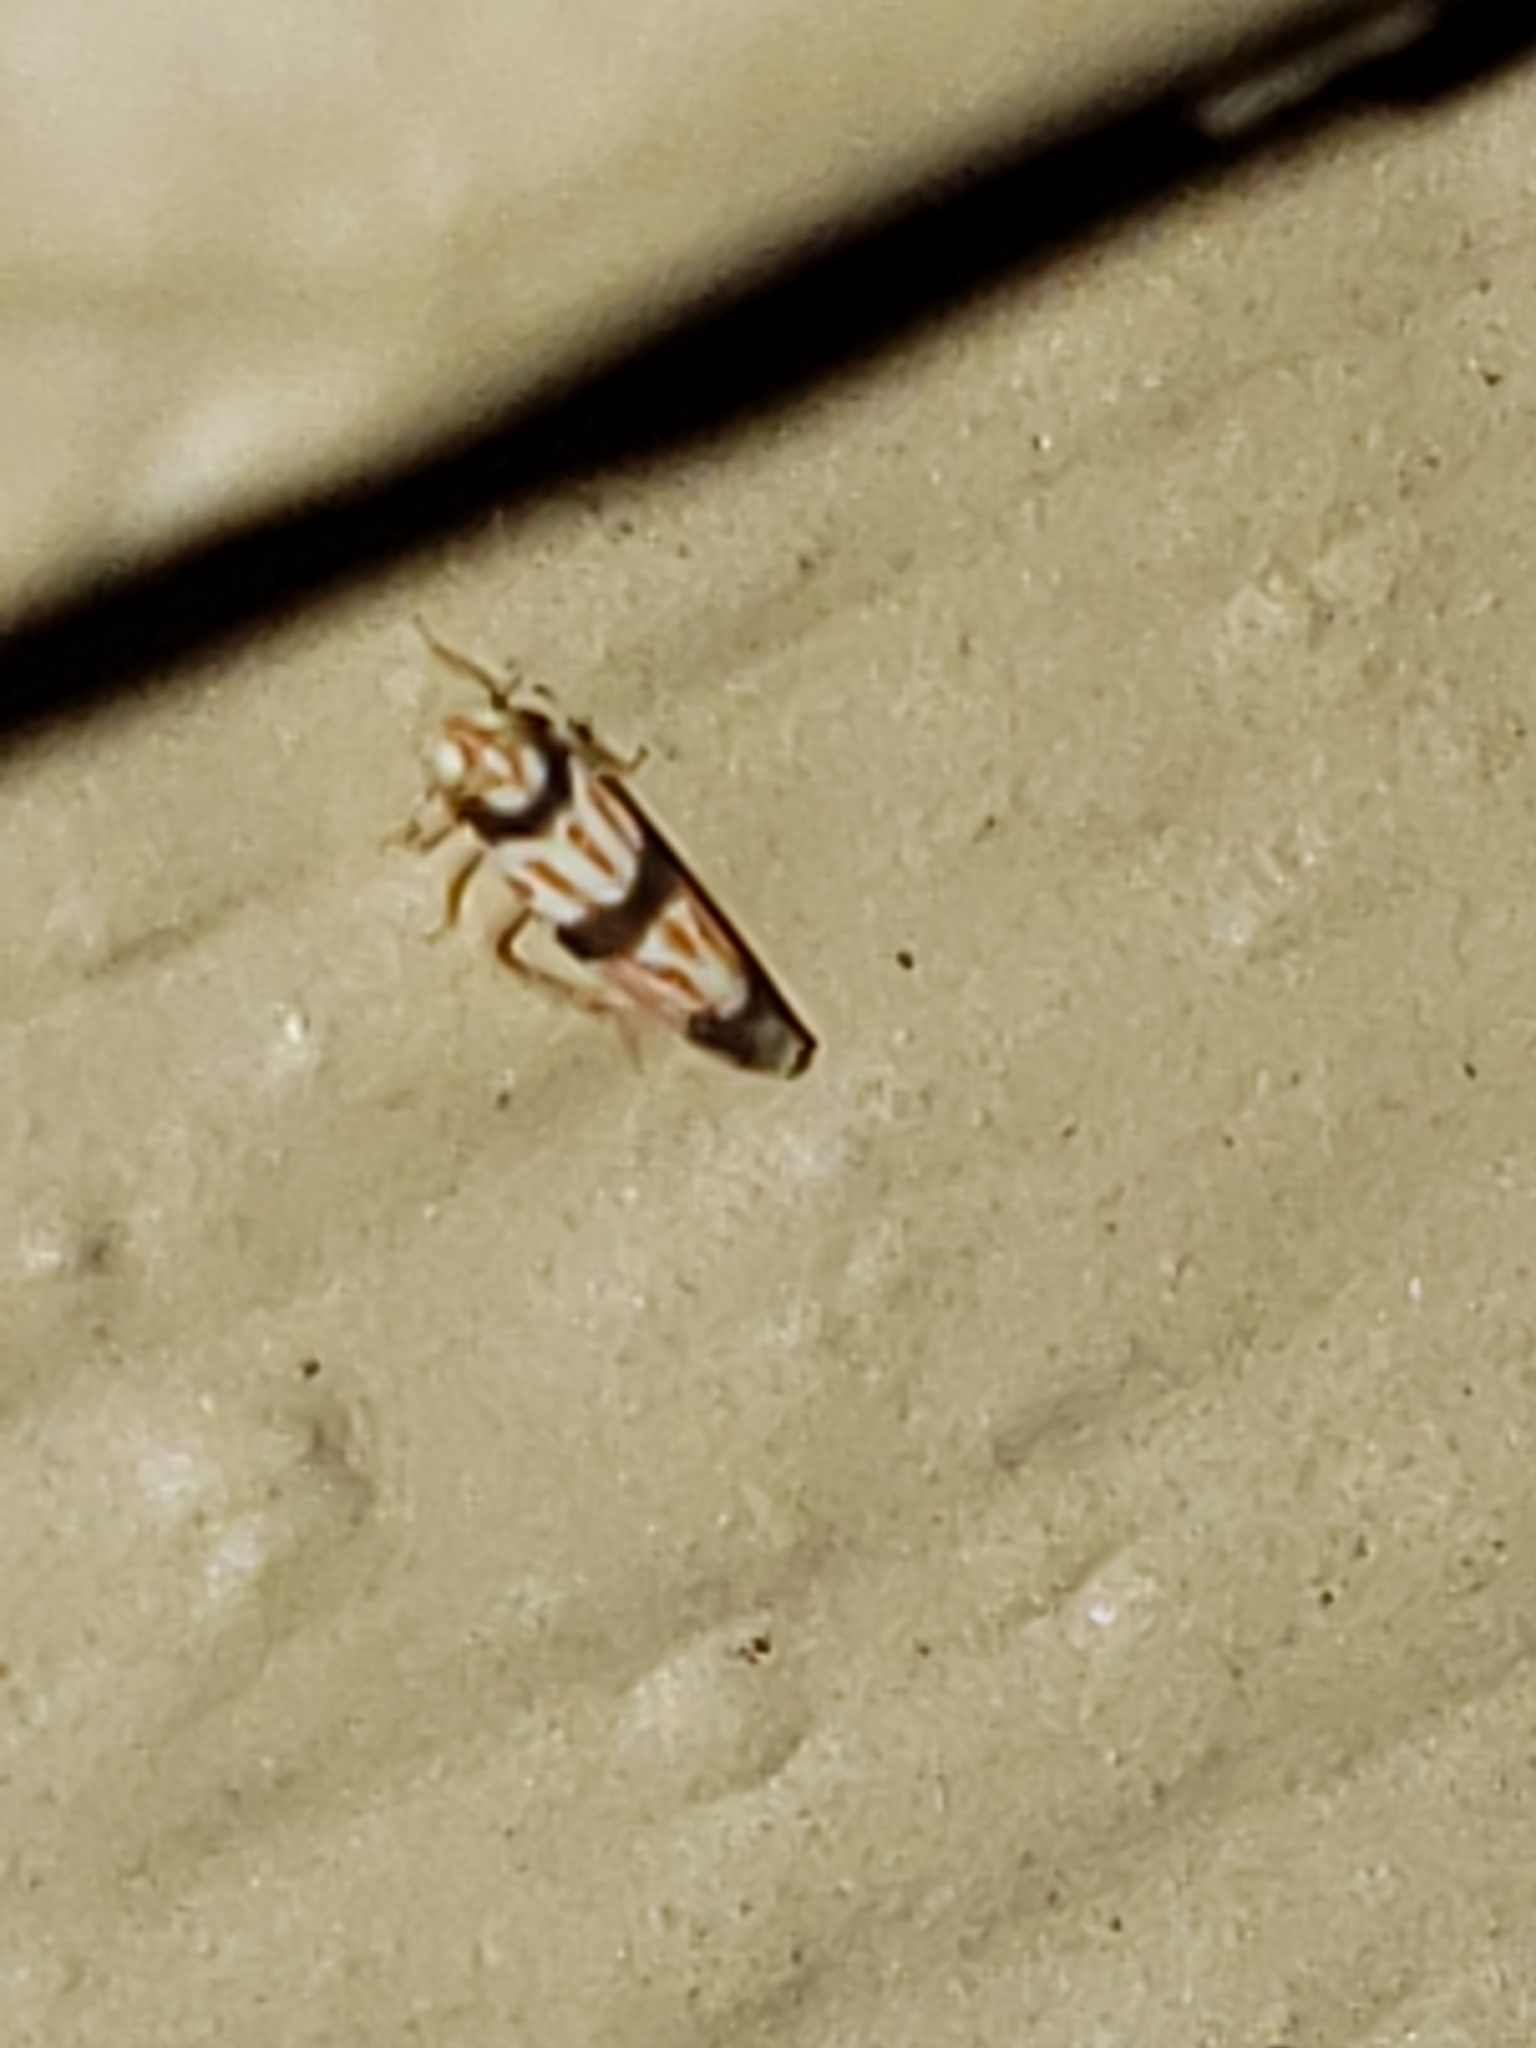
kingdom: Animalia
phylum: Arthropoda
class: Insecta
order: Hemiptera
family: Cicadellidae
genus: Erythroneura
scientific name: Erythroneura calycula
